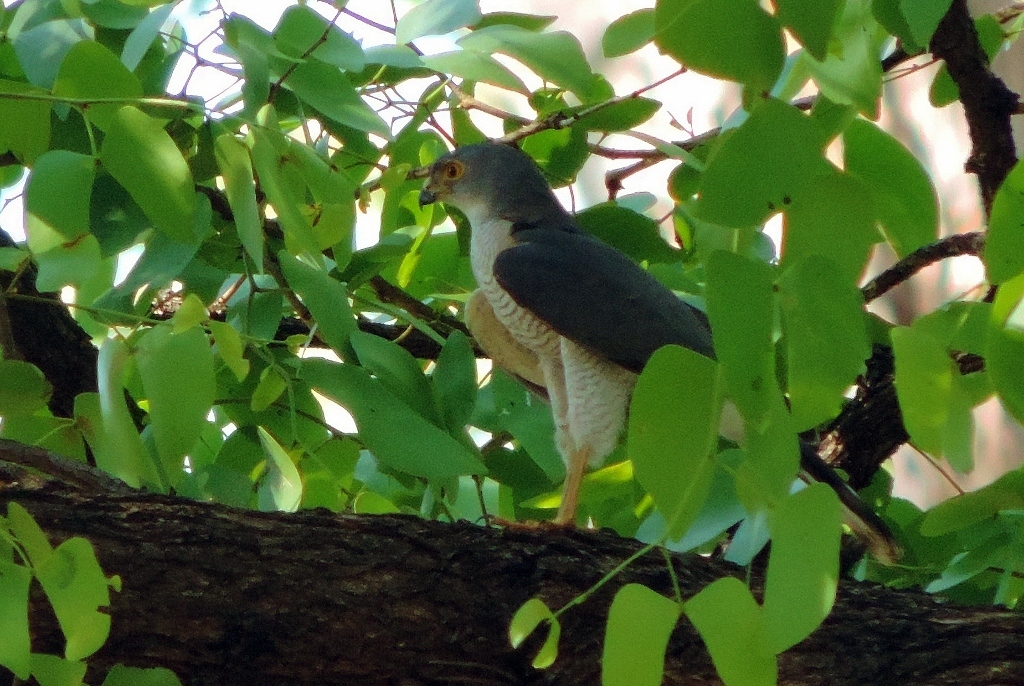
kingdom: Animalia
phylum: Chordata
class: Aves
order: Accipitriformes
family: Accipitridae
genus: Accipiter
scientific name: Accipiter minullus
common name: Little sparrowhawk
